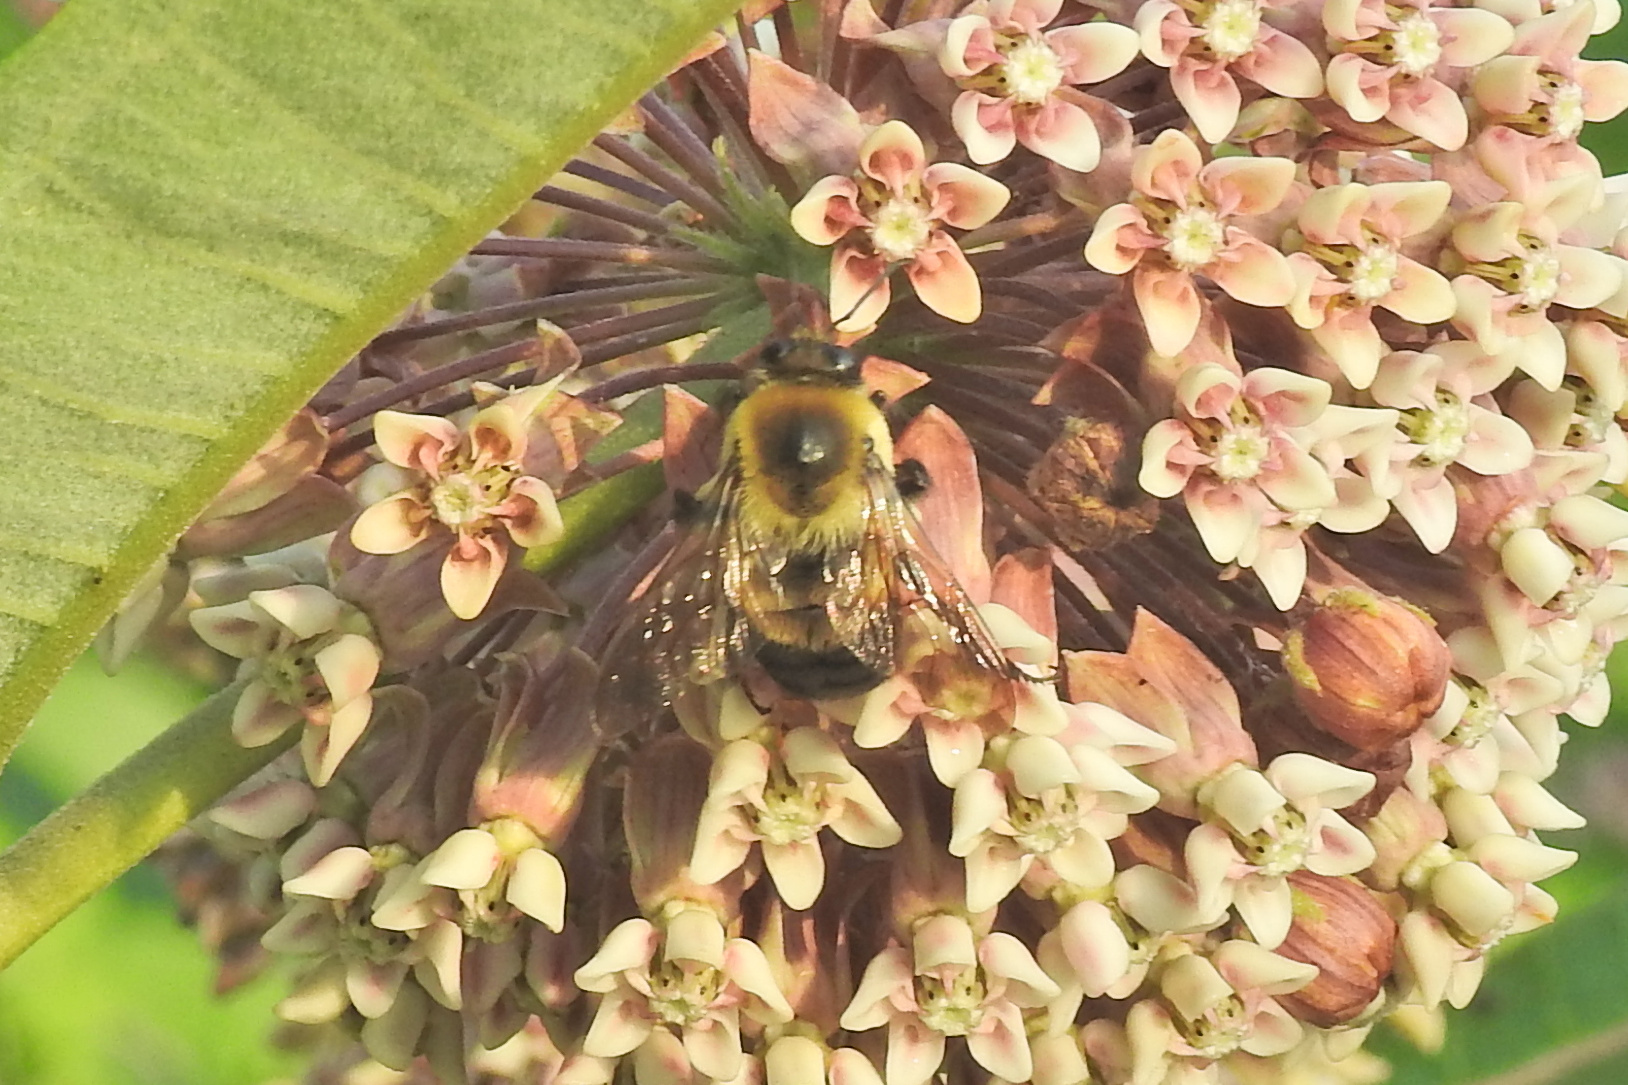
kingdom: Animalia
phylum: Arthropoda
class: Insecta
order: Hymenoptera
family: Apidae
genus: Bombus
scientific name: Bombus griseocollis
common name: Brown-belted bumble bee
